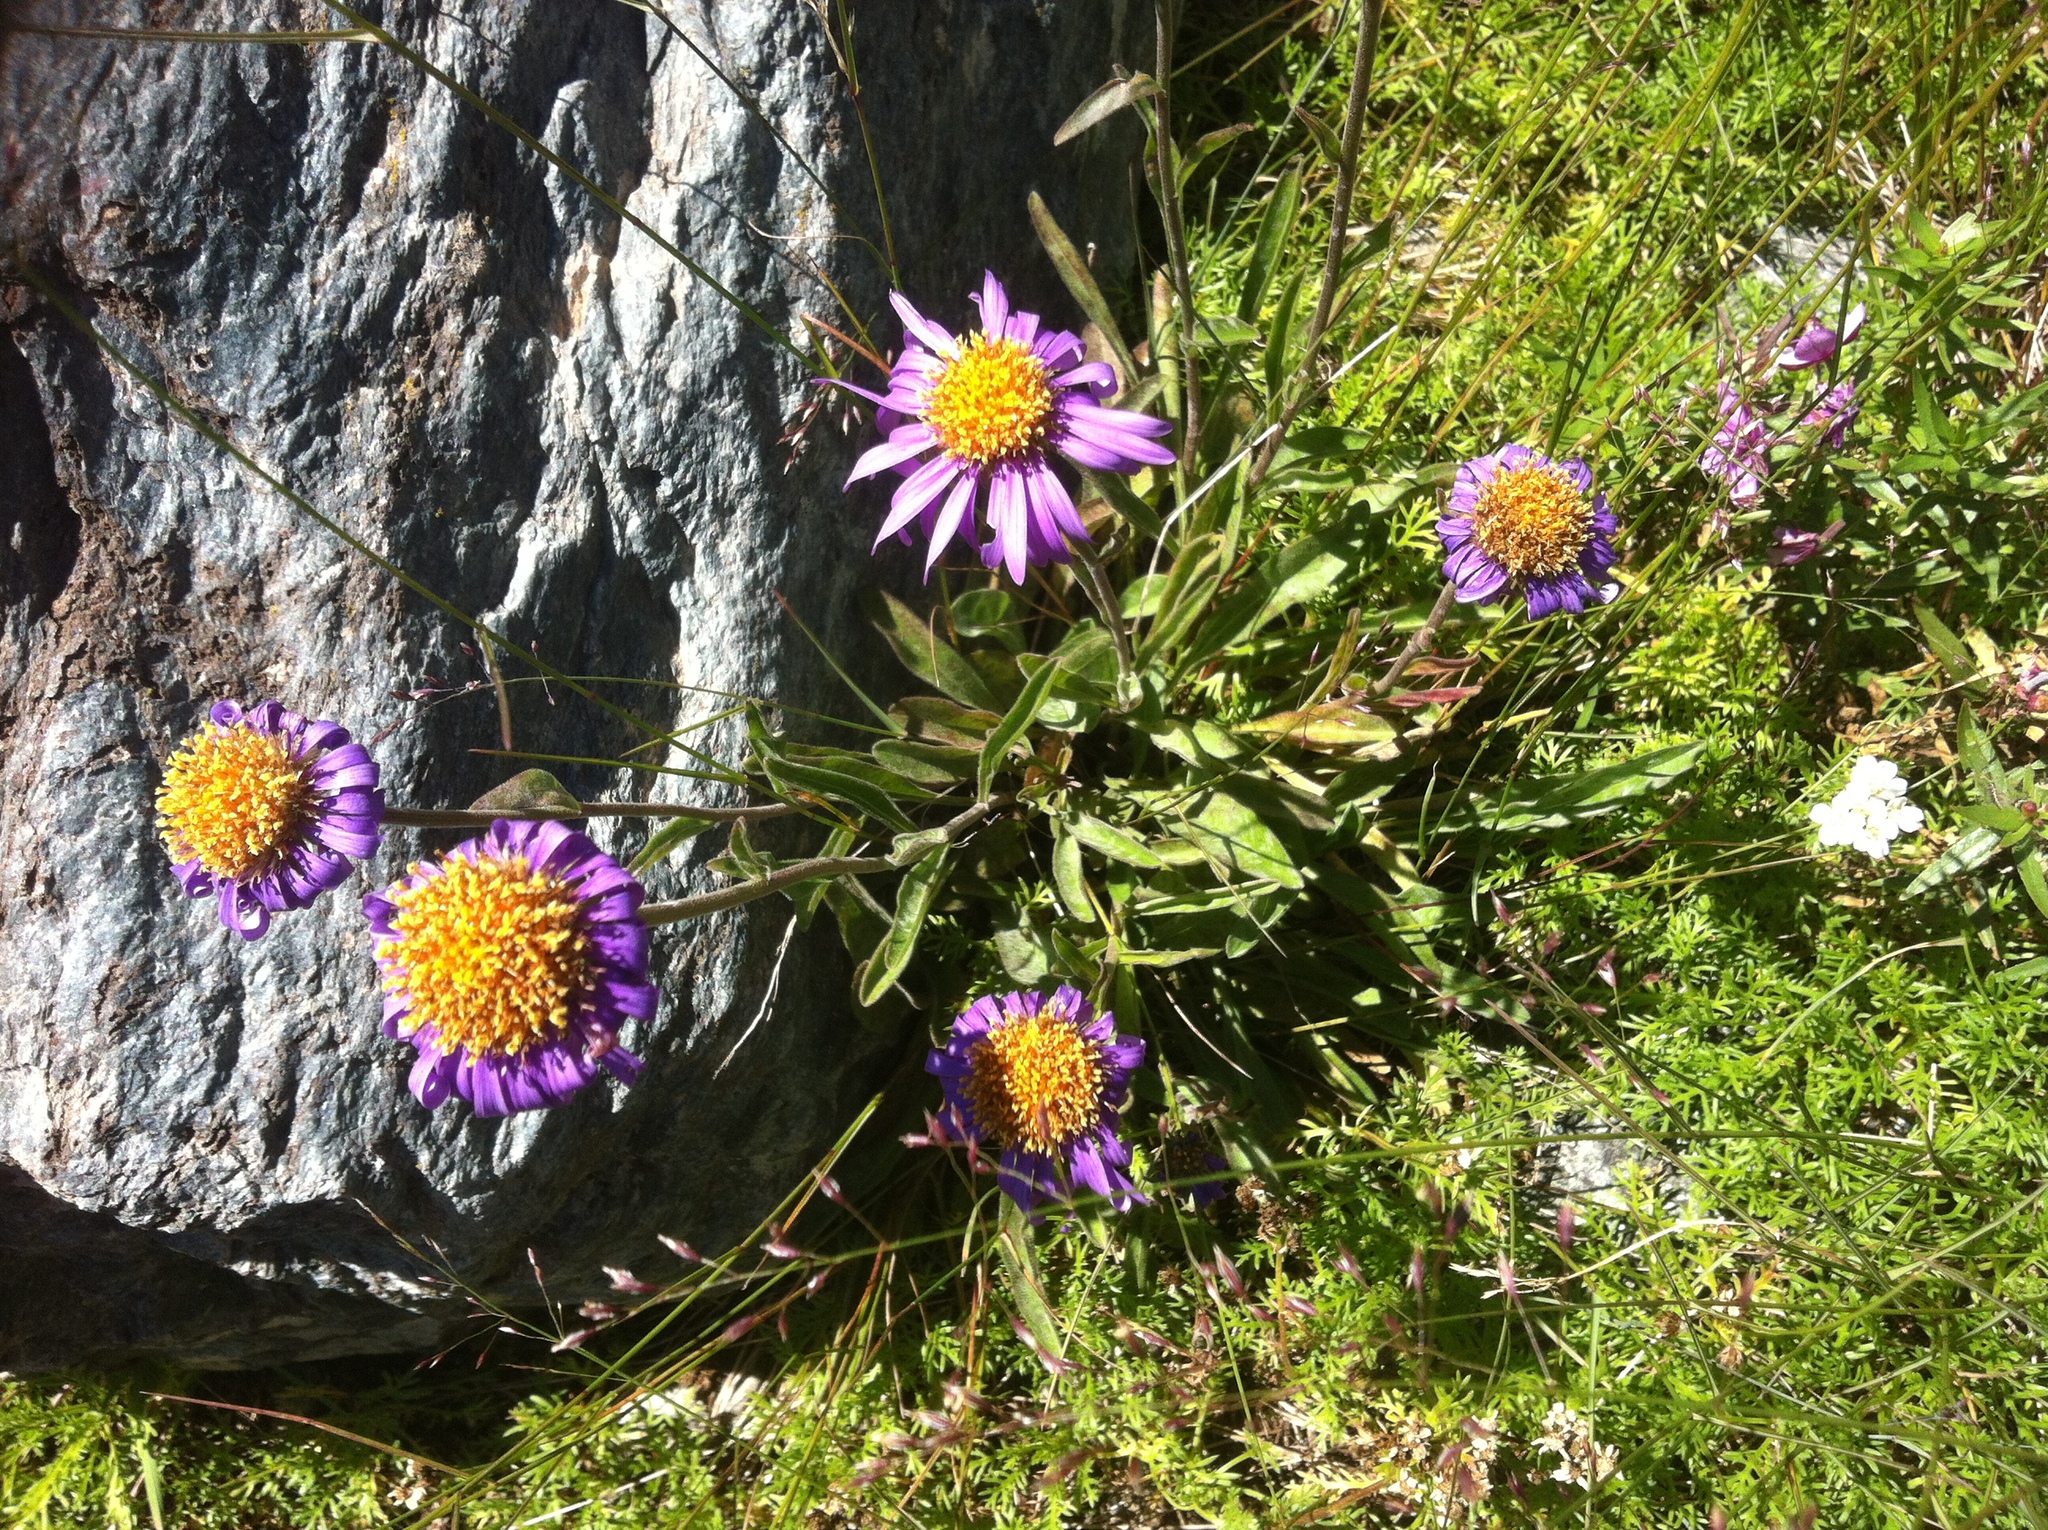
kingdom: Plantae
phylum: Tracheophyta
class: Magnoliopsida
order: Asterales
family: Asteraceae
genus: Aster
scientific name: Aster alpinus
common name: Alpine aster
